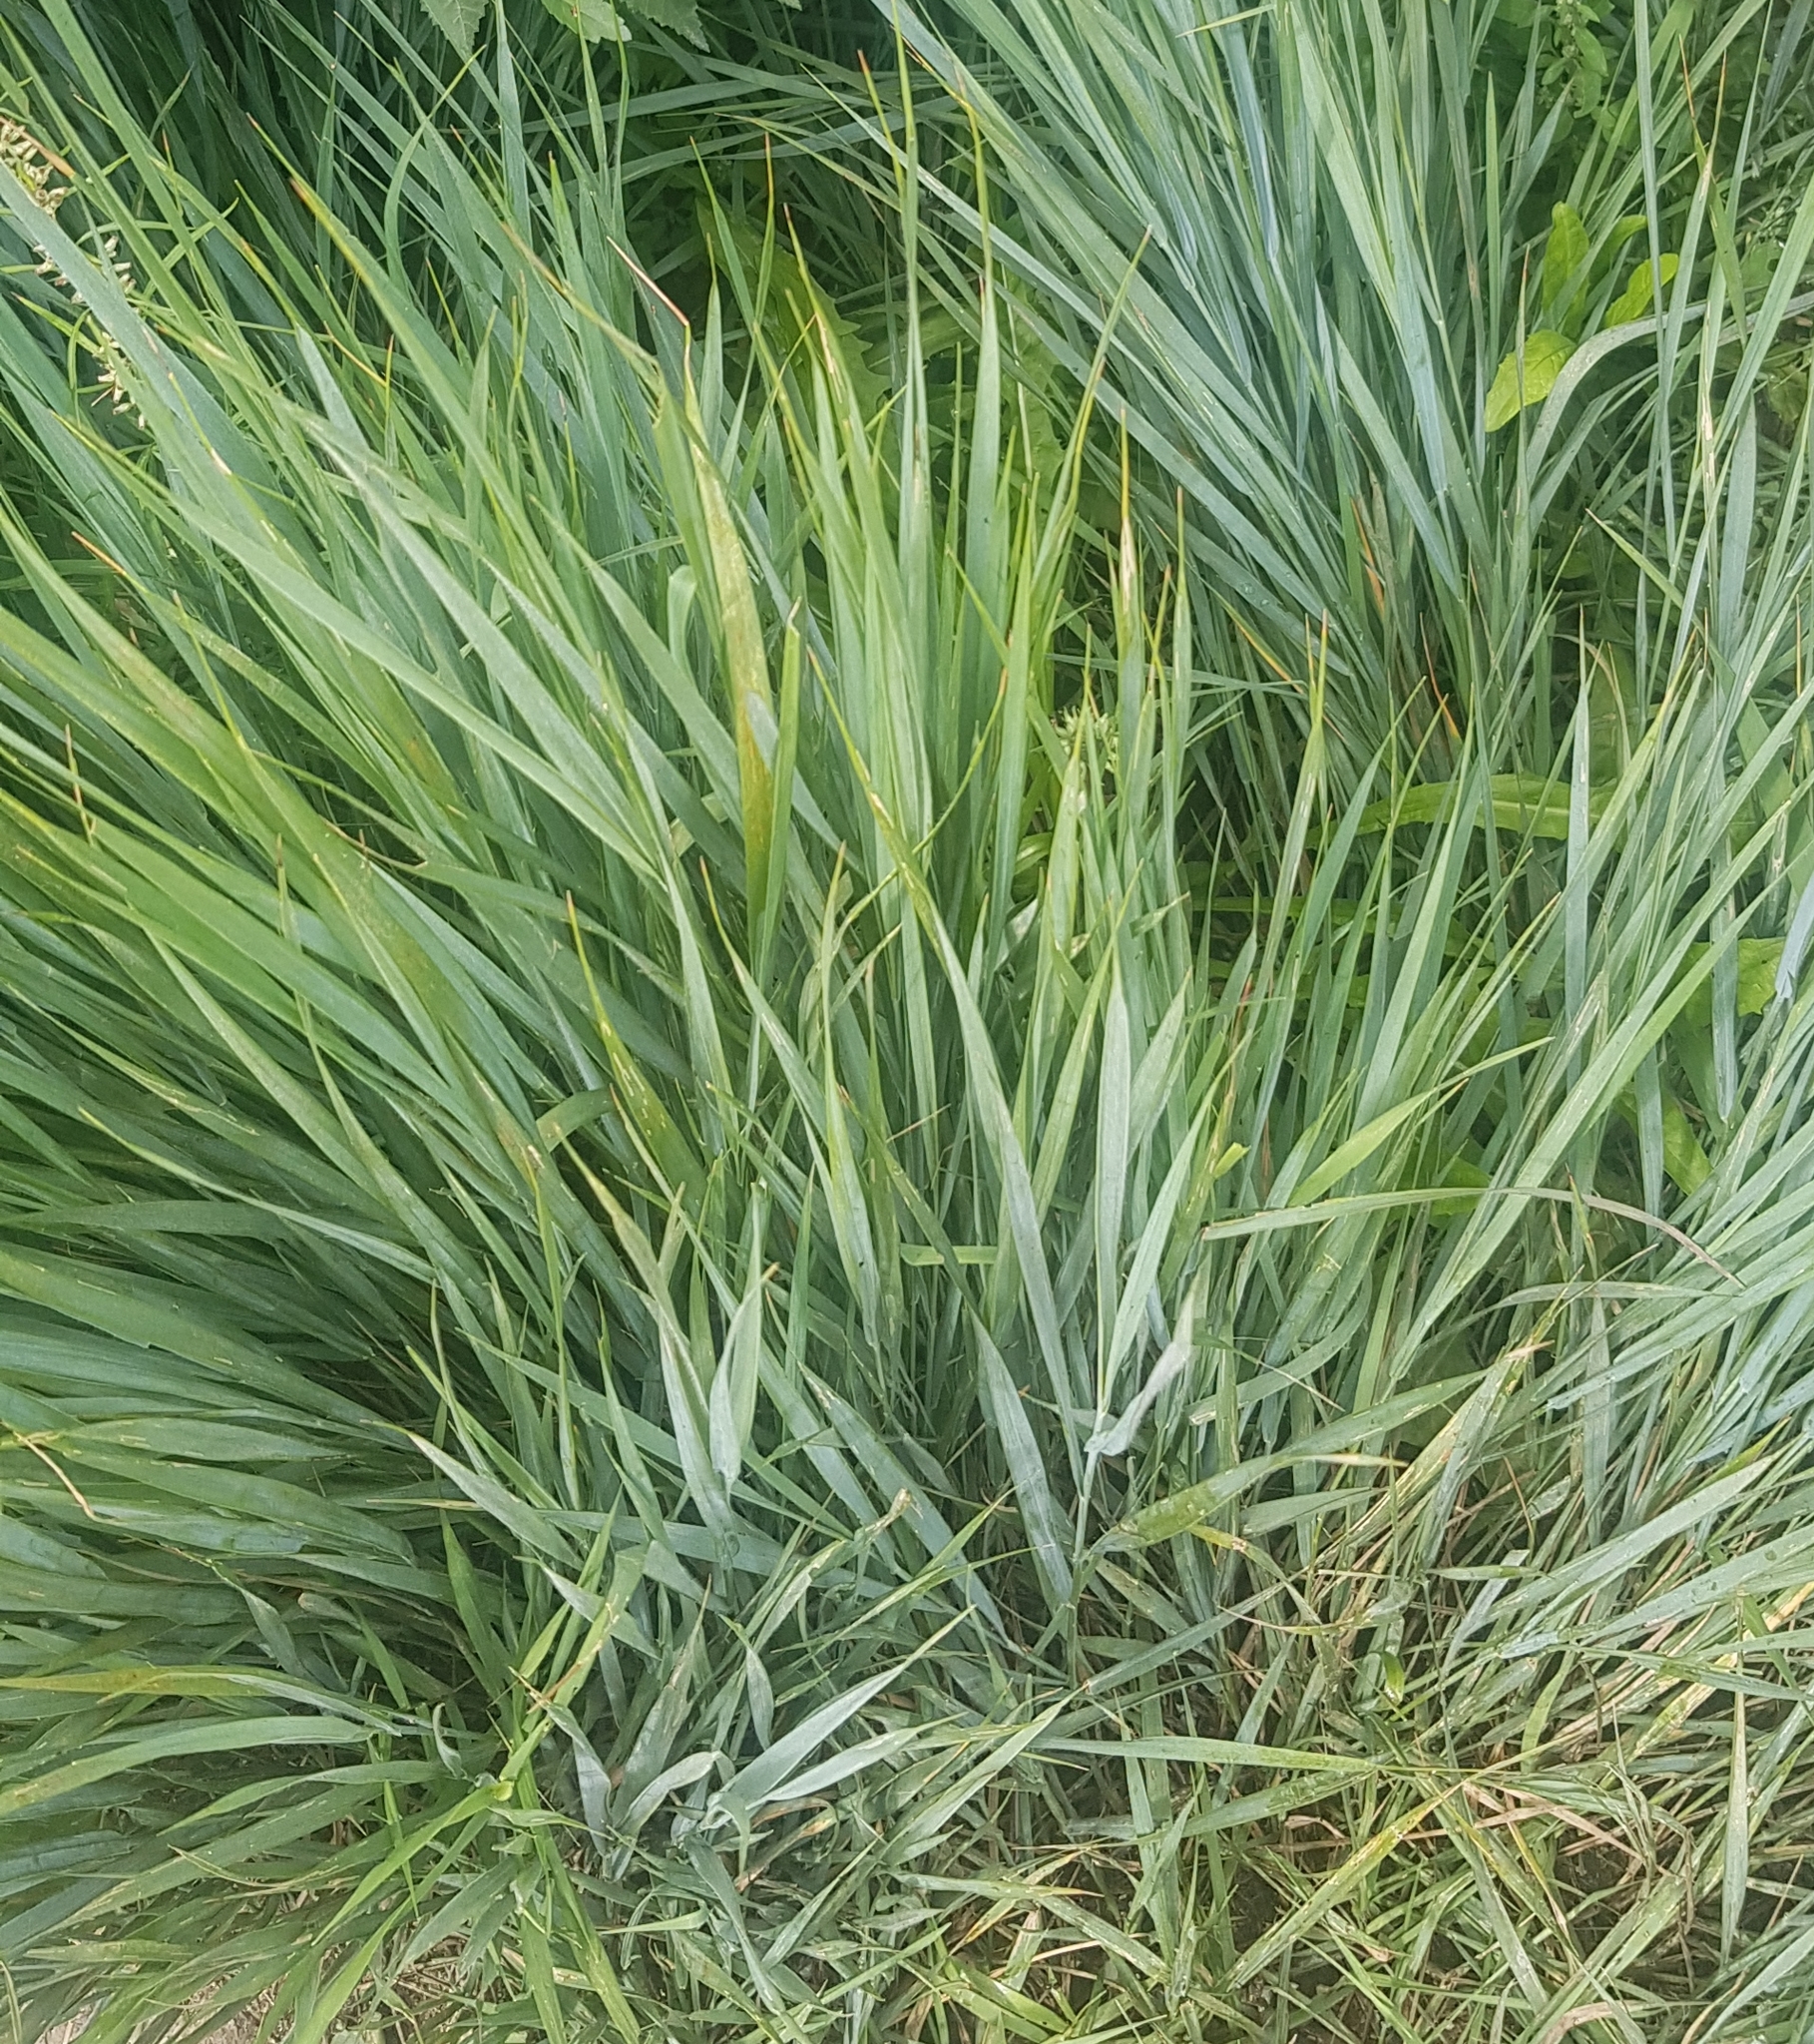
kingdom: Plantae
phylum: Tracheophyta
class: Liliopsida
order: Poales
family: Poaceae
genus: Leymus
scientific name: Leymus chinensis
